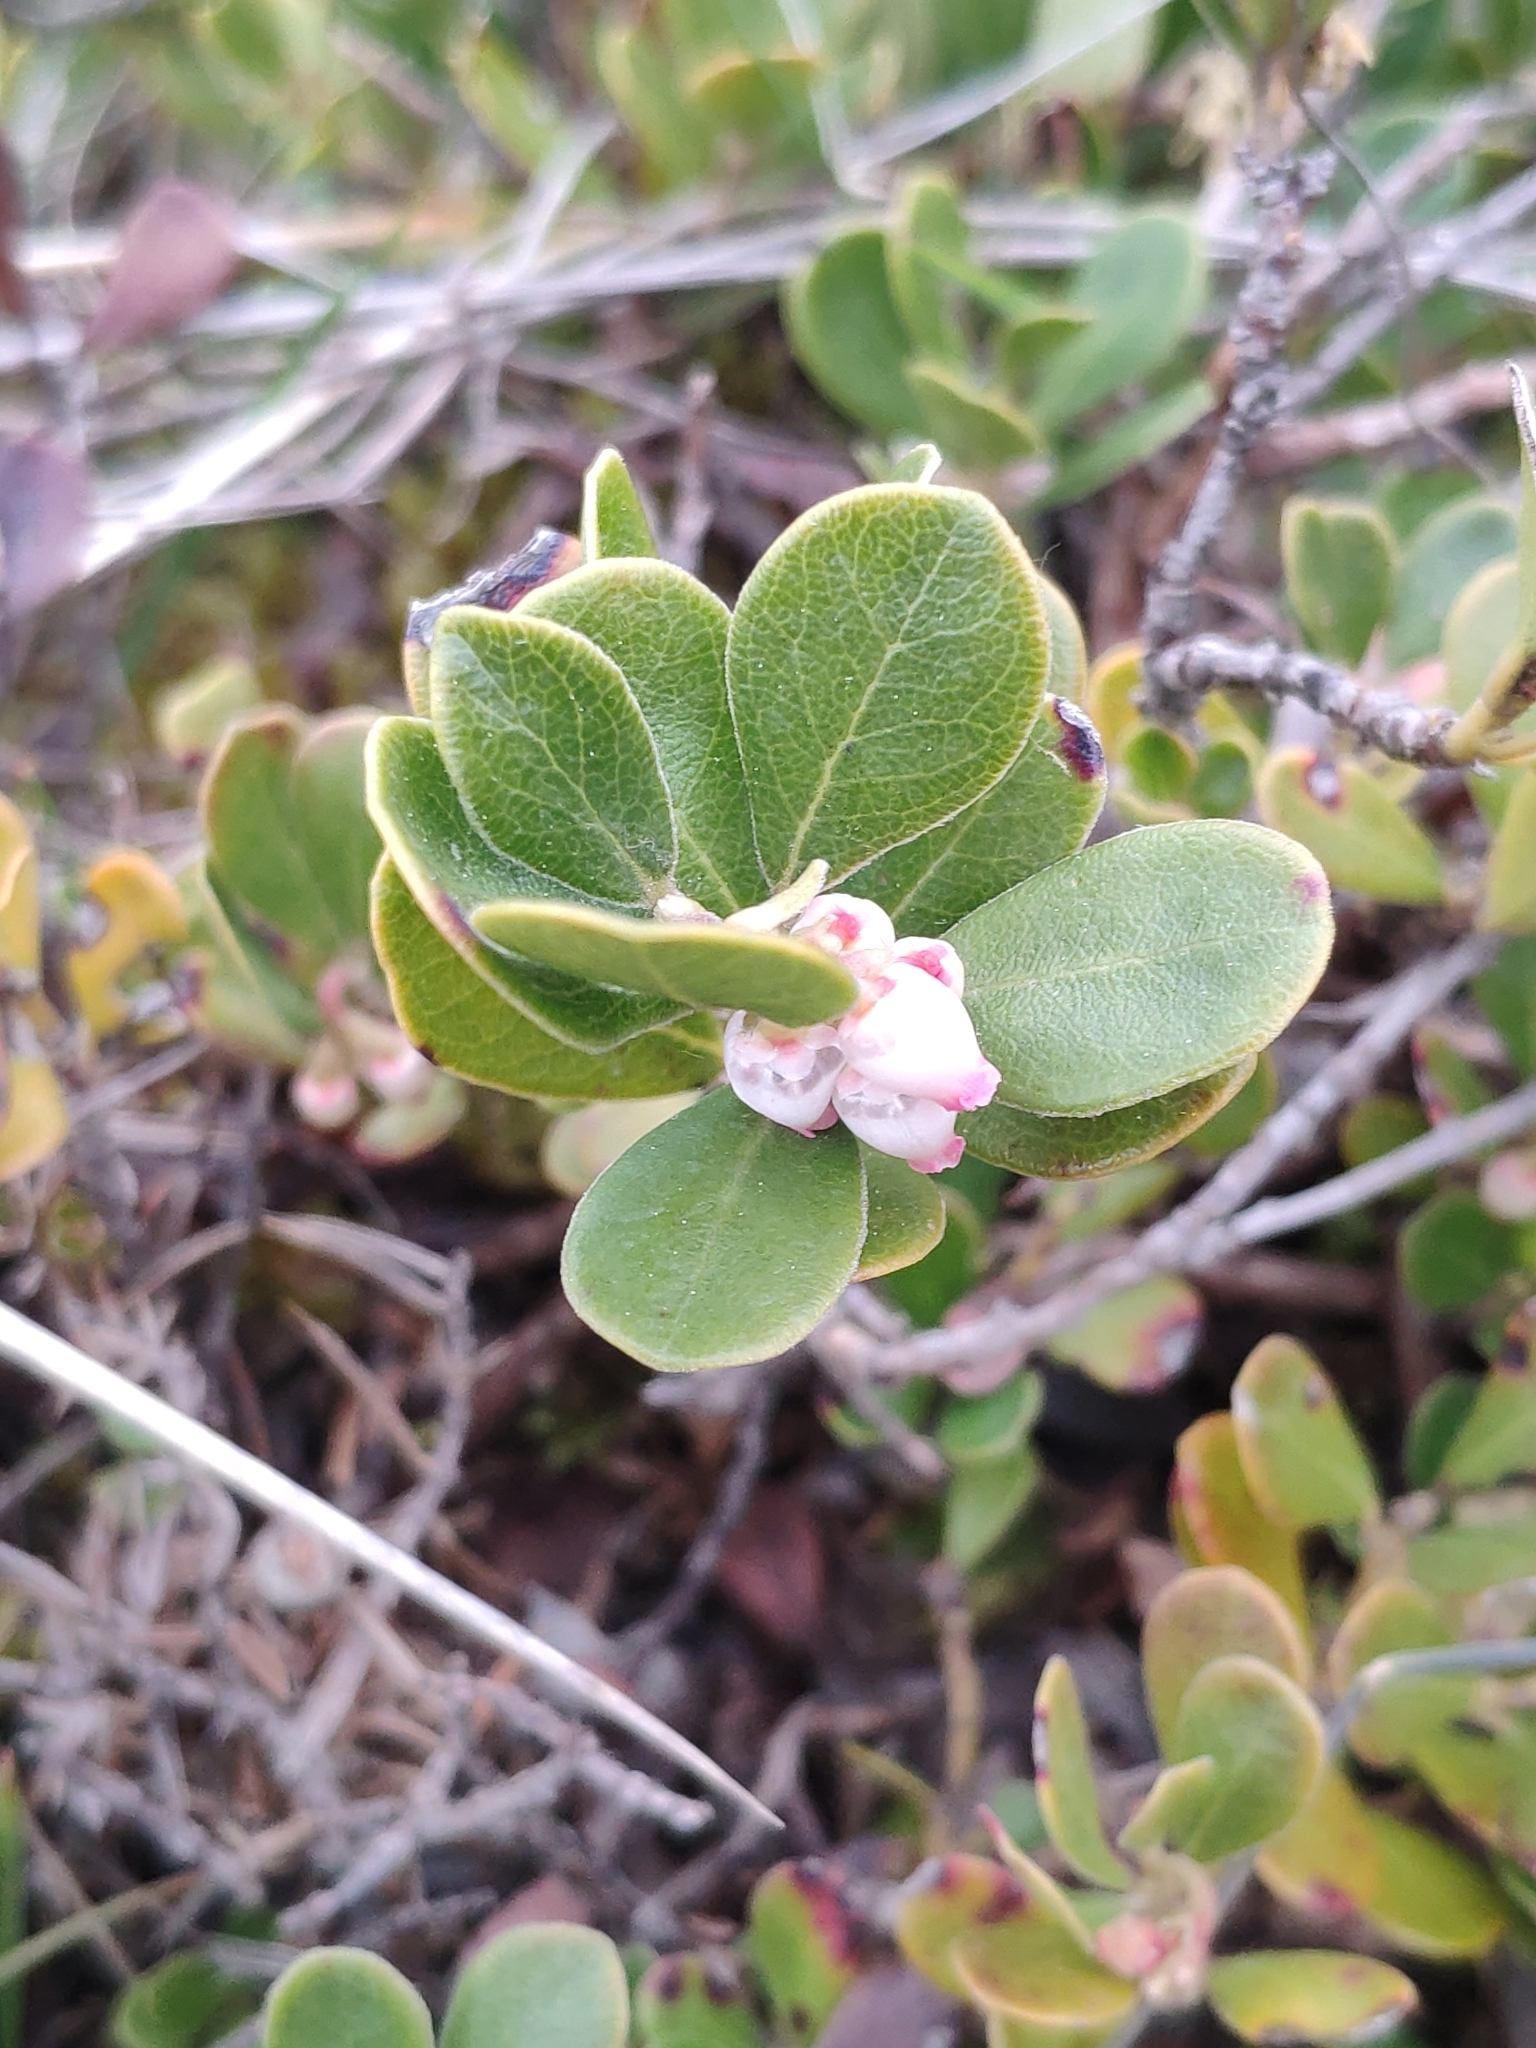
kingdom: Plantae
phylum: Tracheophyta
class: Magnoliopsida
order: Ericales
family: Ericaceae
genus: Arctostaphylos
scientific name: Arctostaphylos uva-ursi
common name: Bearberry
